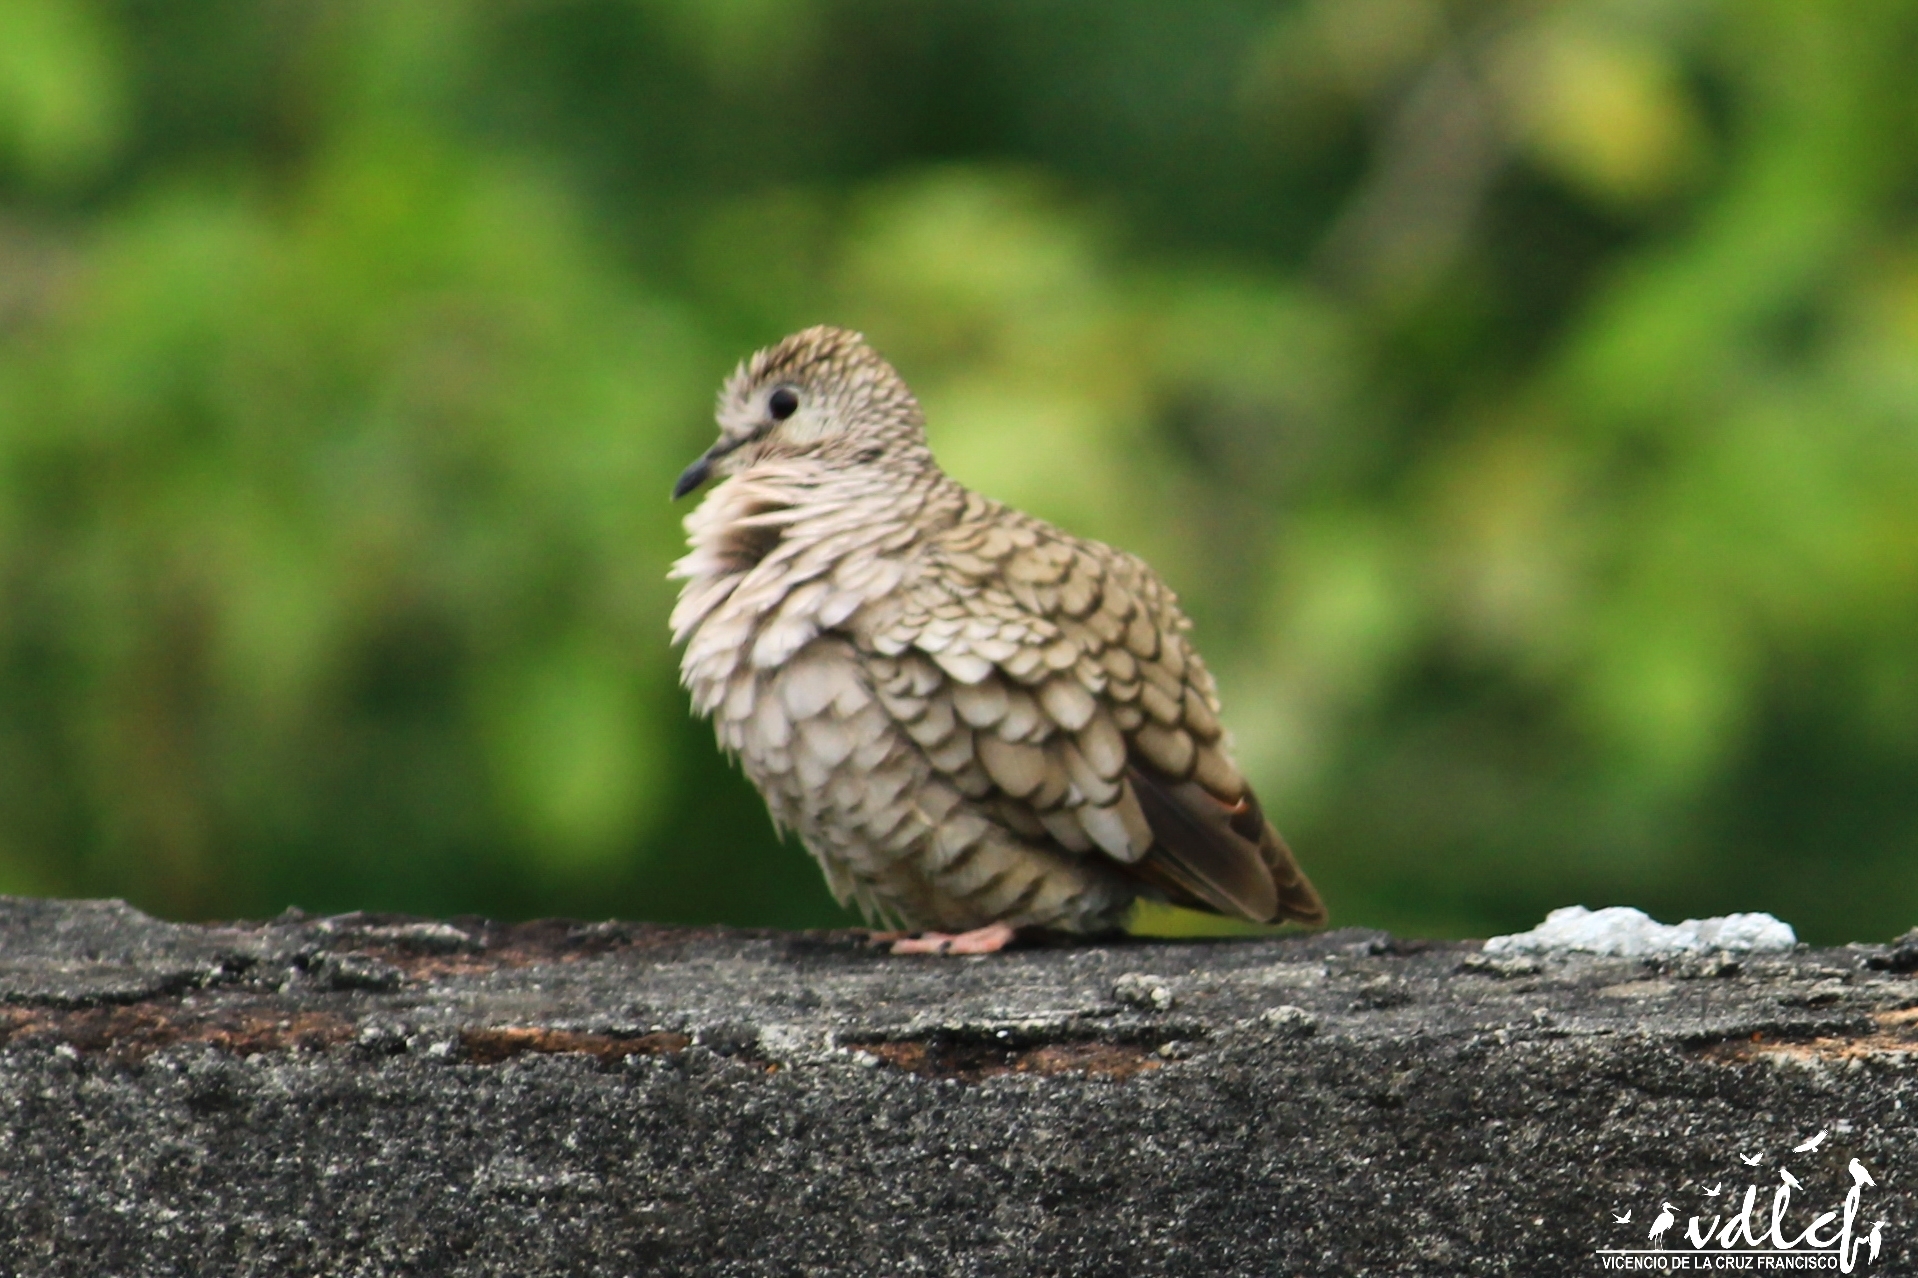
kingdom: Animalia
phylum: Chordata
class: Aves
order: Columbiformes
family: Columbidae
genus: Columbina
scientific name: Columbina inca
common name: Inca dove
